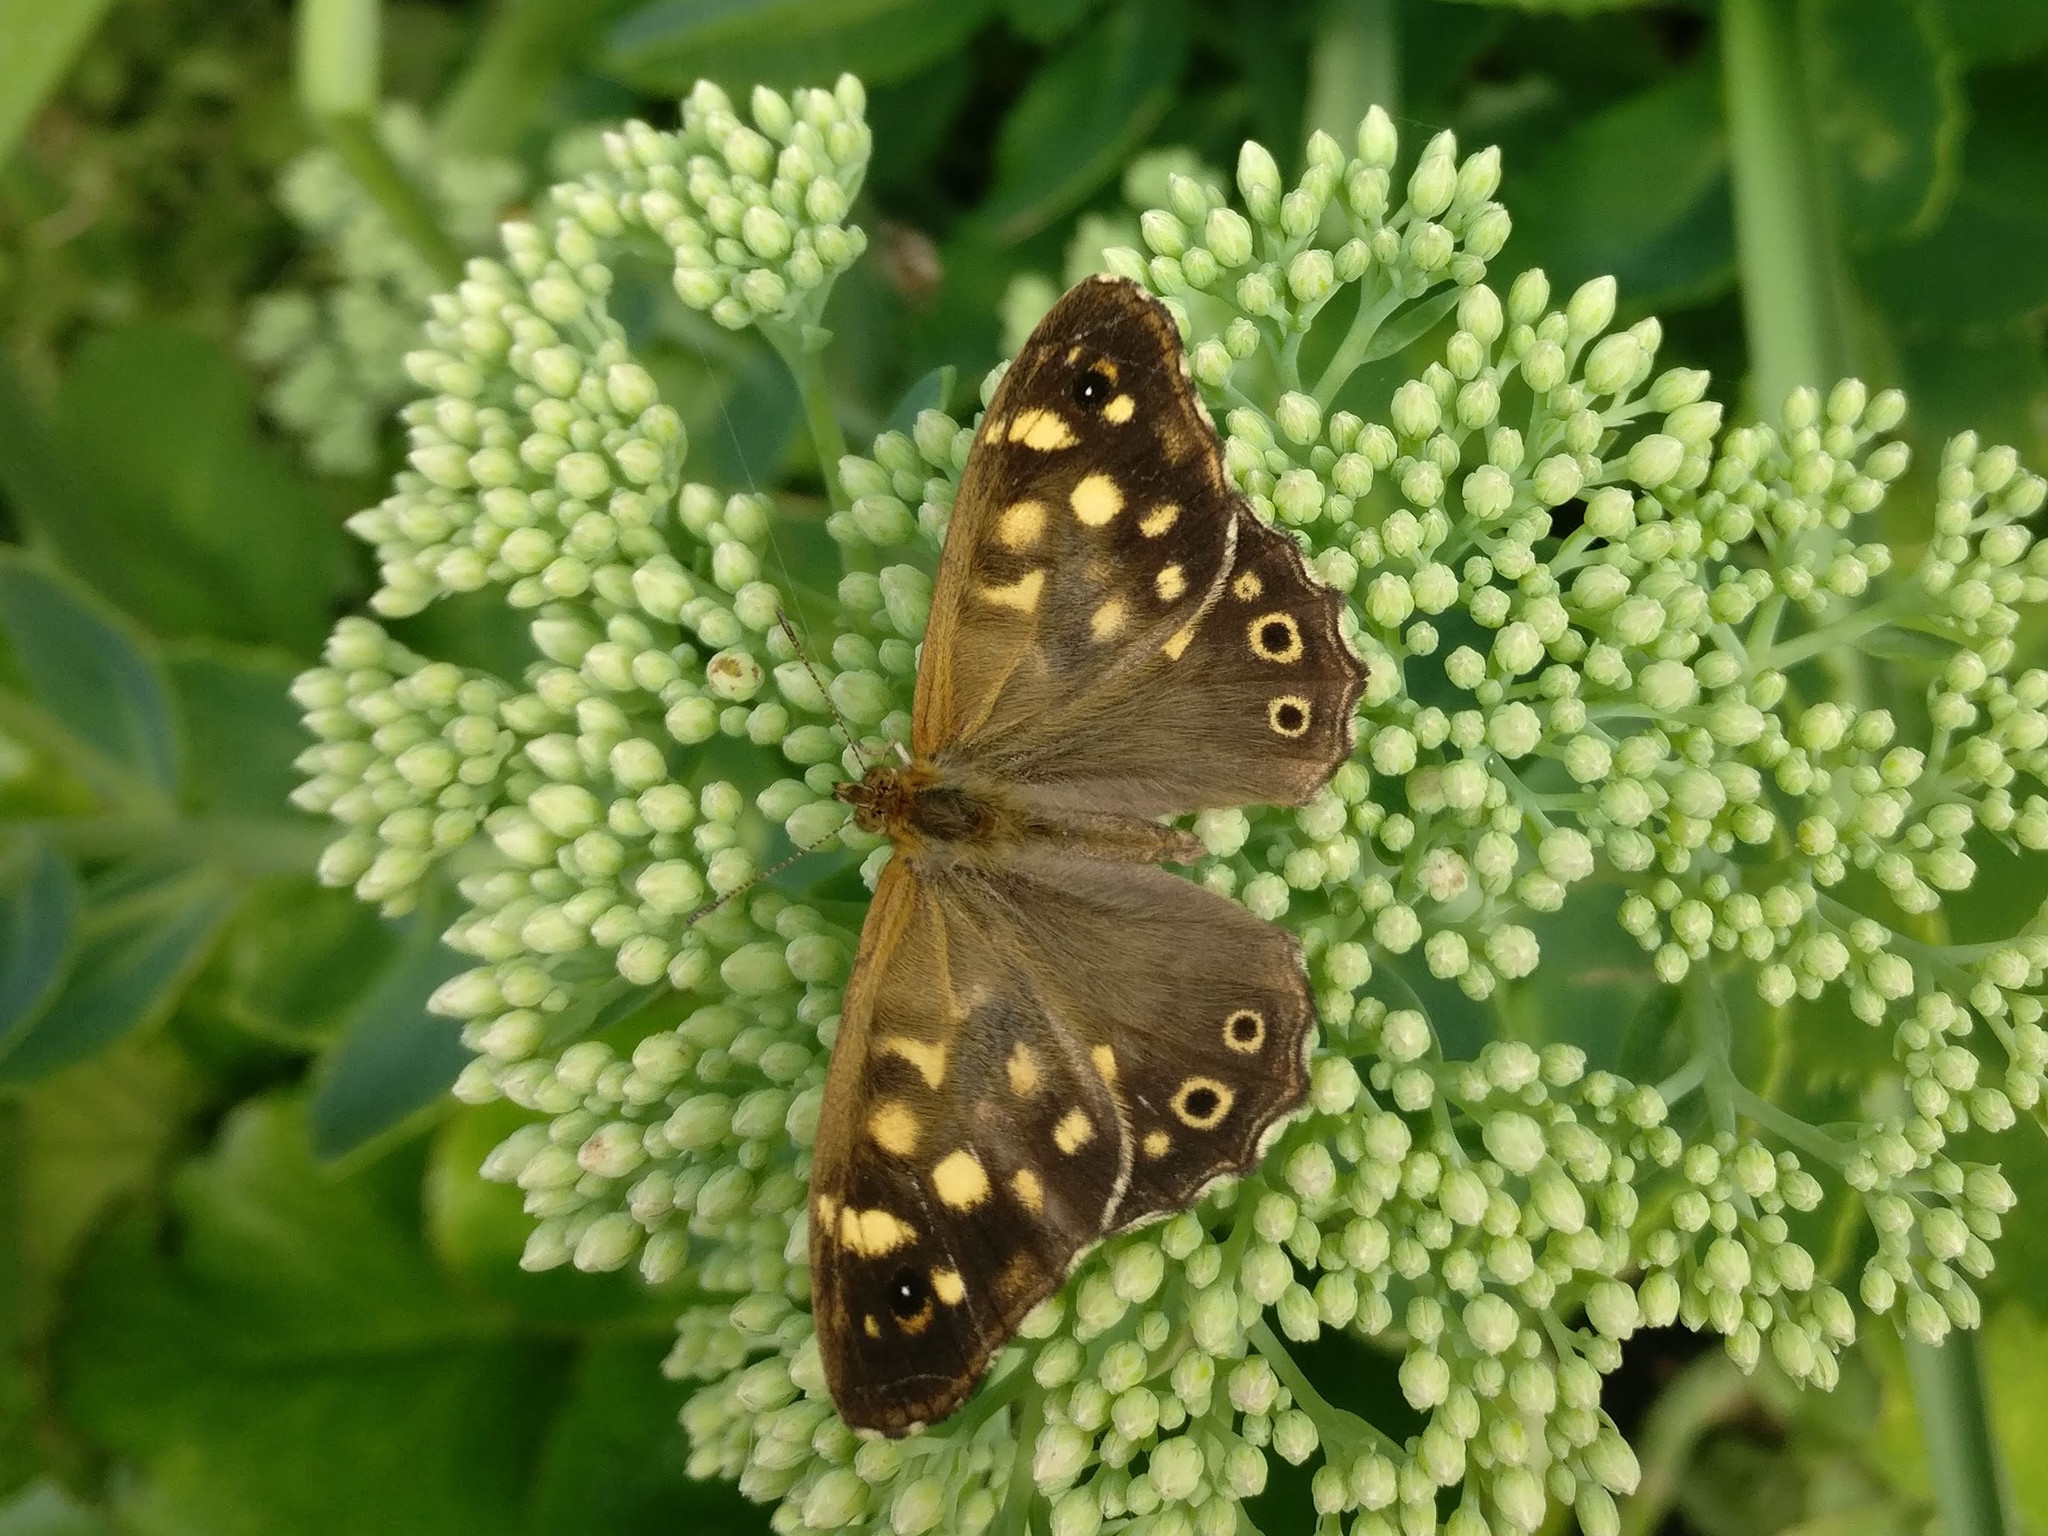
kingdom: Animalia
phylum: Arthropoda
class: Insecta
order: Lepidoptera
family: Nymphalidae
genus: Pararge
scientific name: Pararge aegeria
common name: Speckled wood
